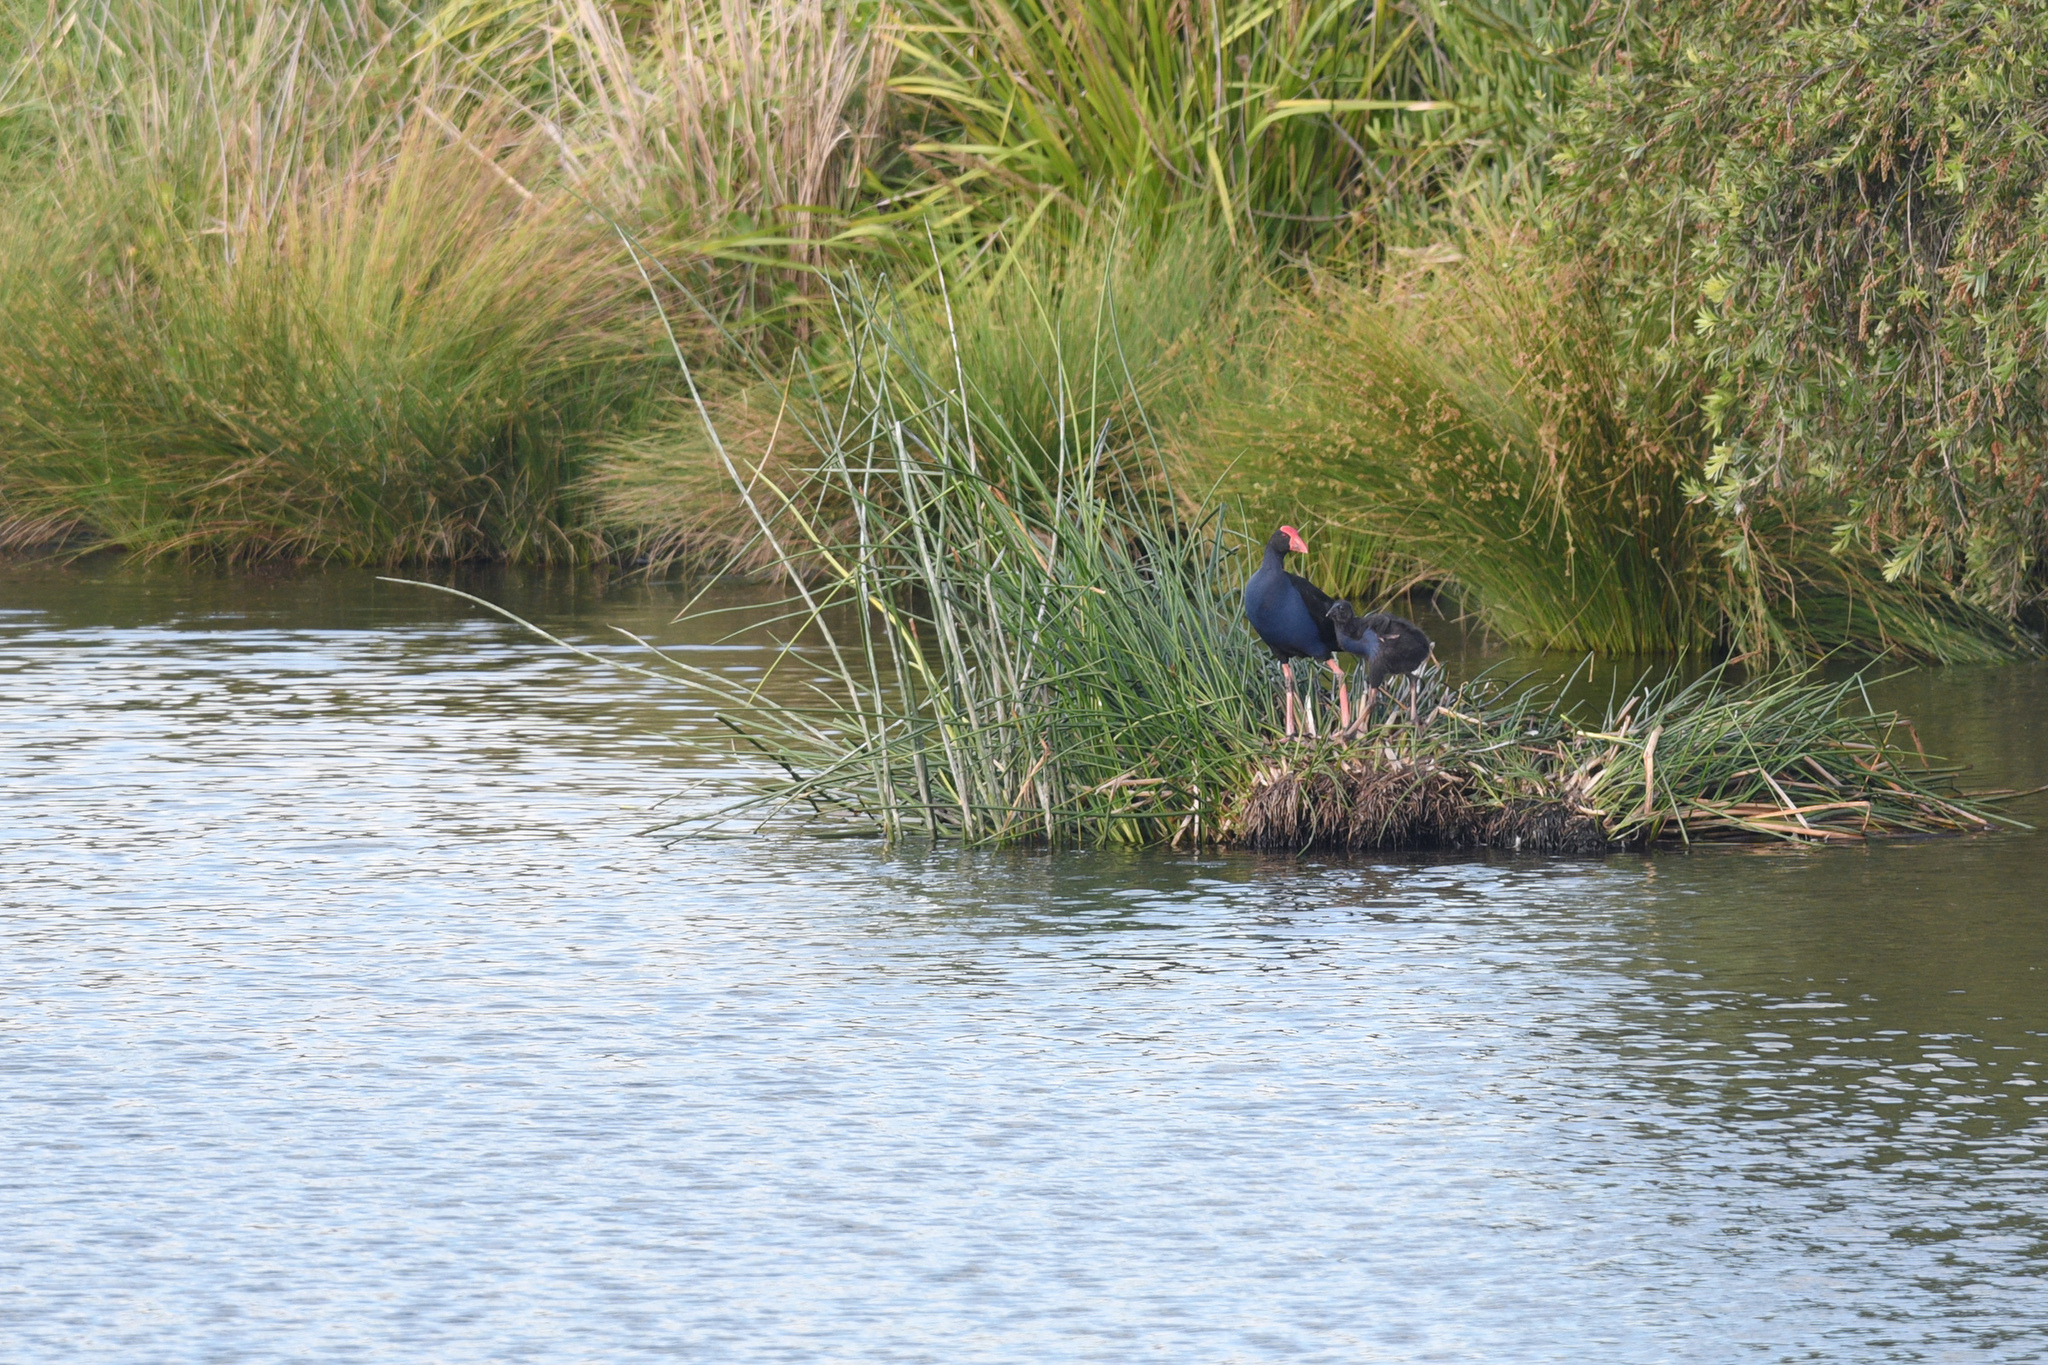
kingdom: Animalia
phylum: Chordata
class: Aves
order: Gruiformes
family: Rallidae
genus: Porphyrio
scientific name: Porphyrio melanotus
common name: Australasian swamphen
